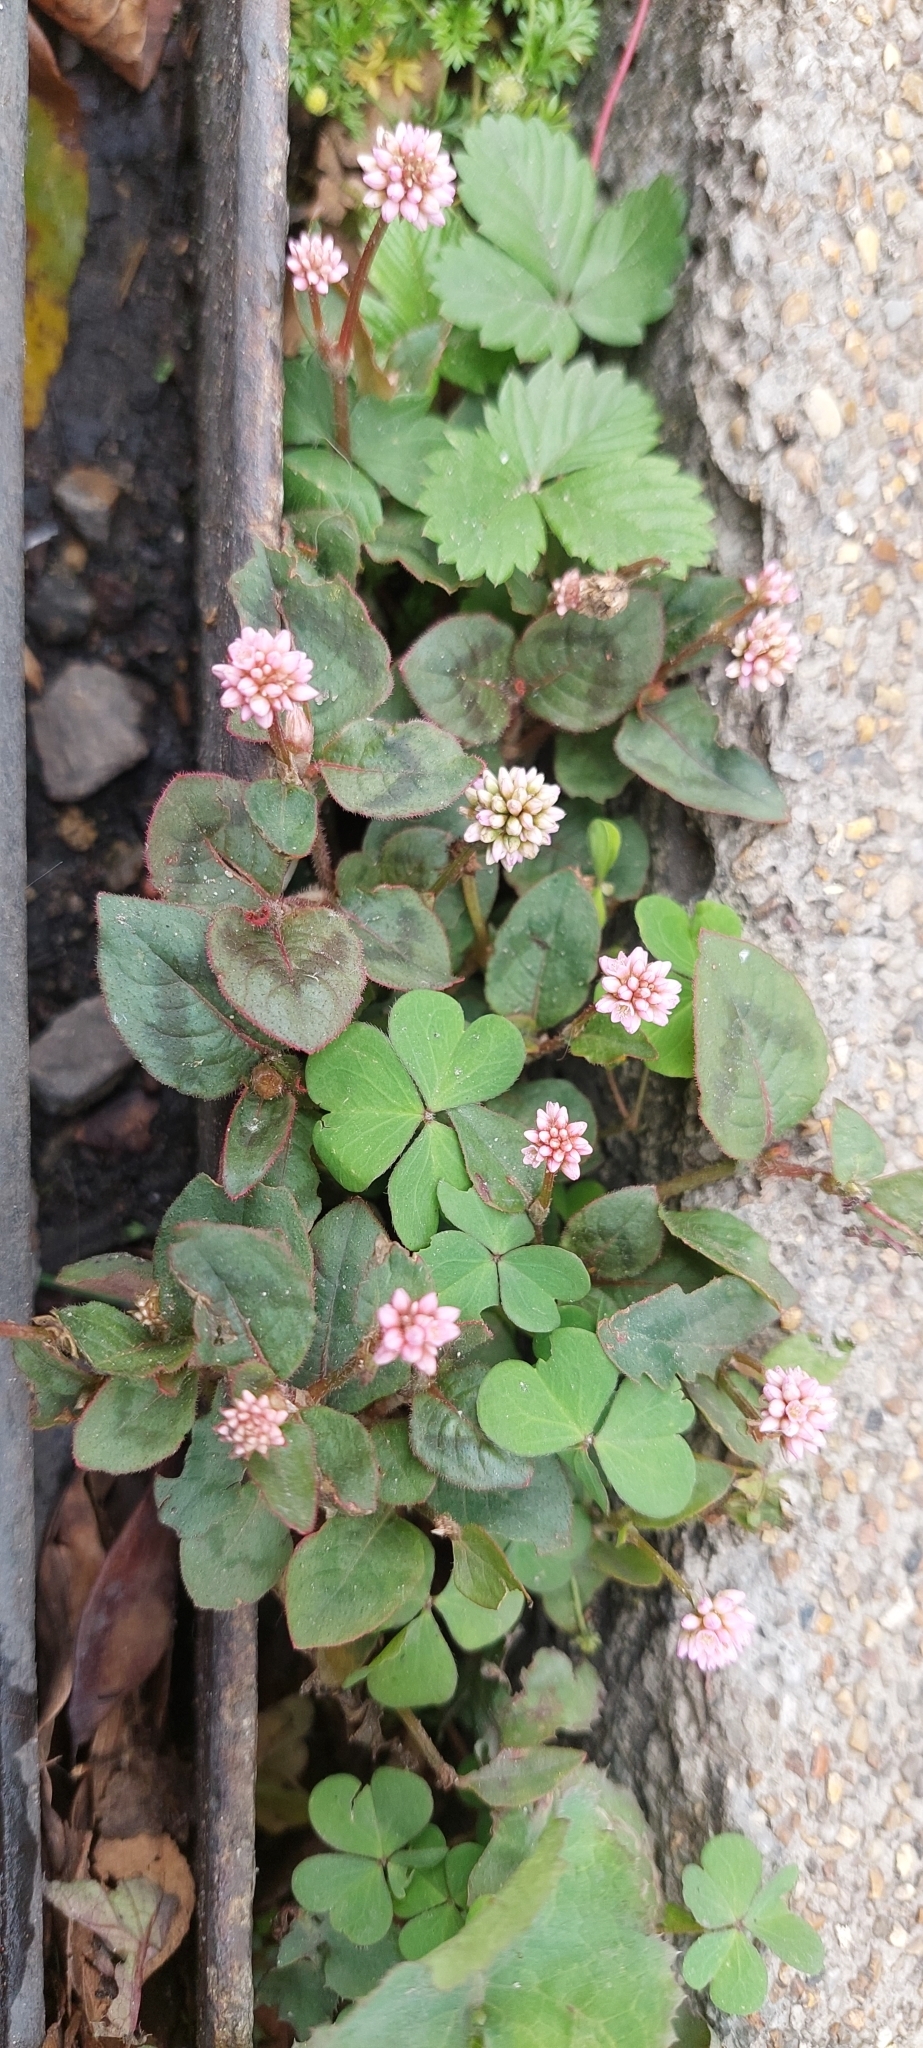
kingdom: Plantae
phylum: Tracheophyta
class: Magnoliopsida
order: Caryophyllales
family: Polygonaceae
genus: Persicaria
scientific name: Persicaria capitata
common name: Pinkhead smartweed
